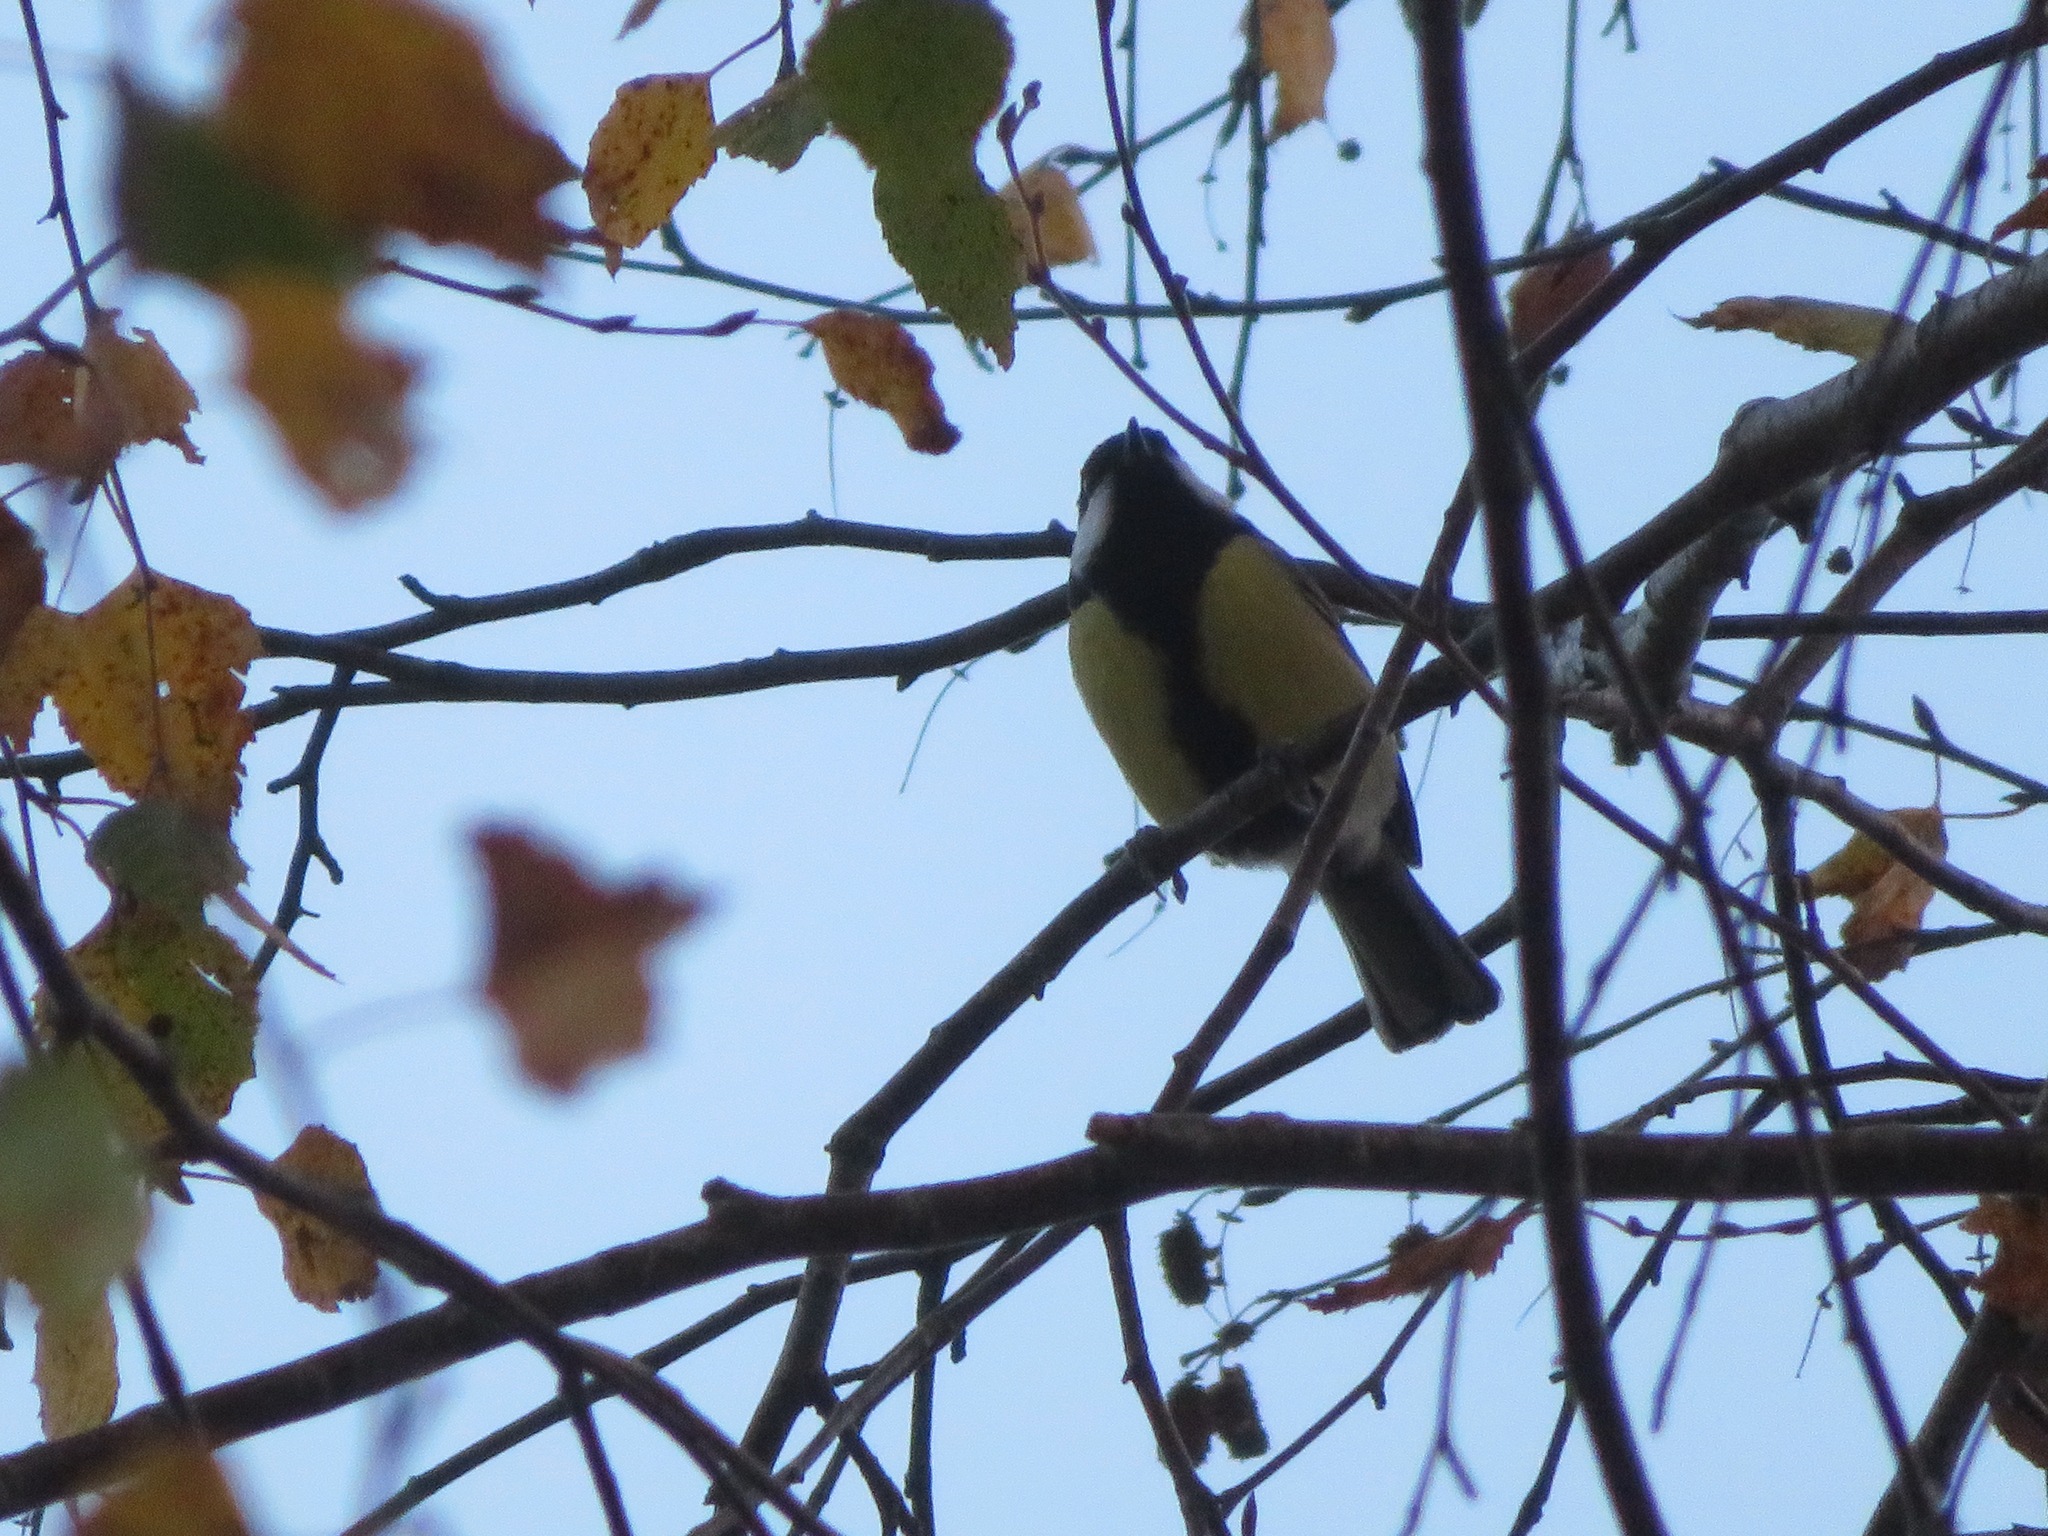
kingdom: Animalia
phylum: Chordata
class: Aves
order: Passeriformes
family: Paridae
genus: Parus
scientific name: Parus major
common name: Great tit
